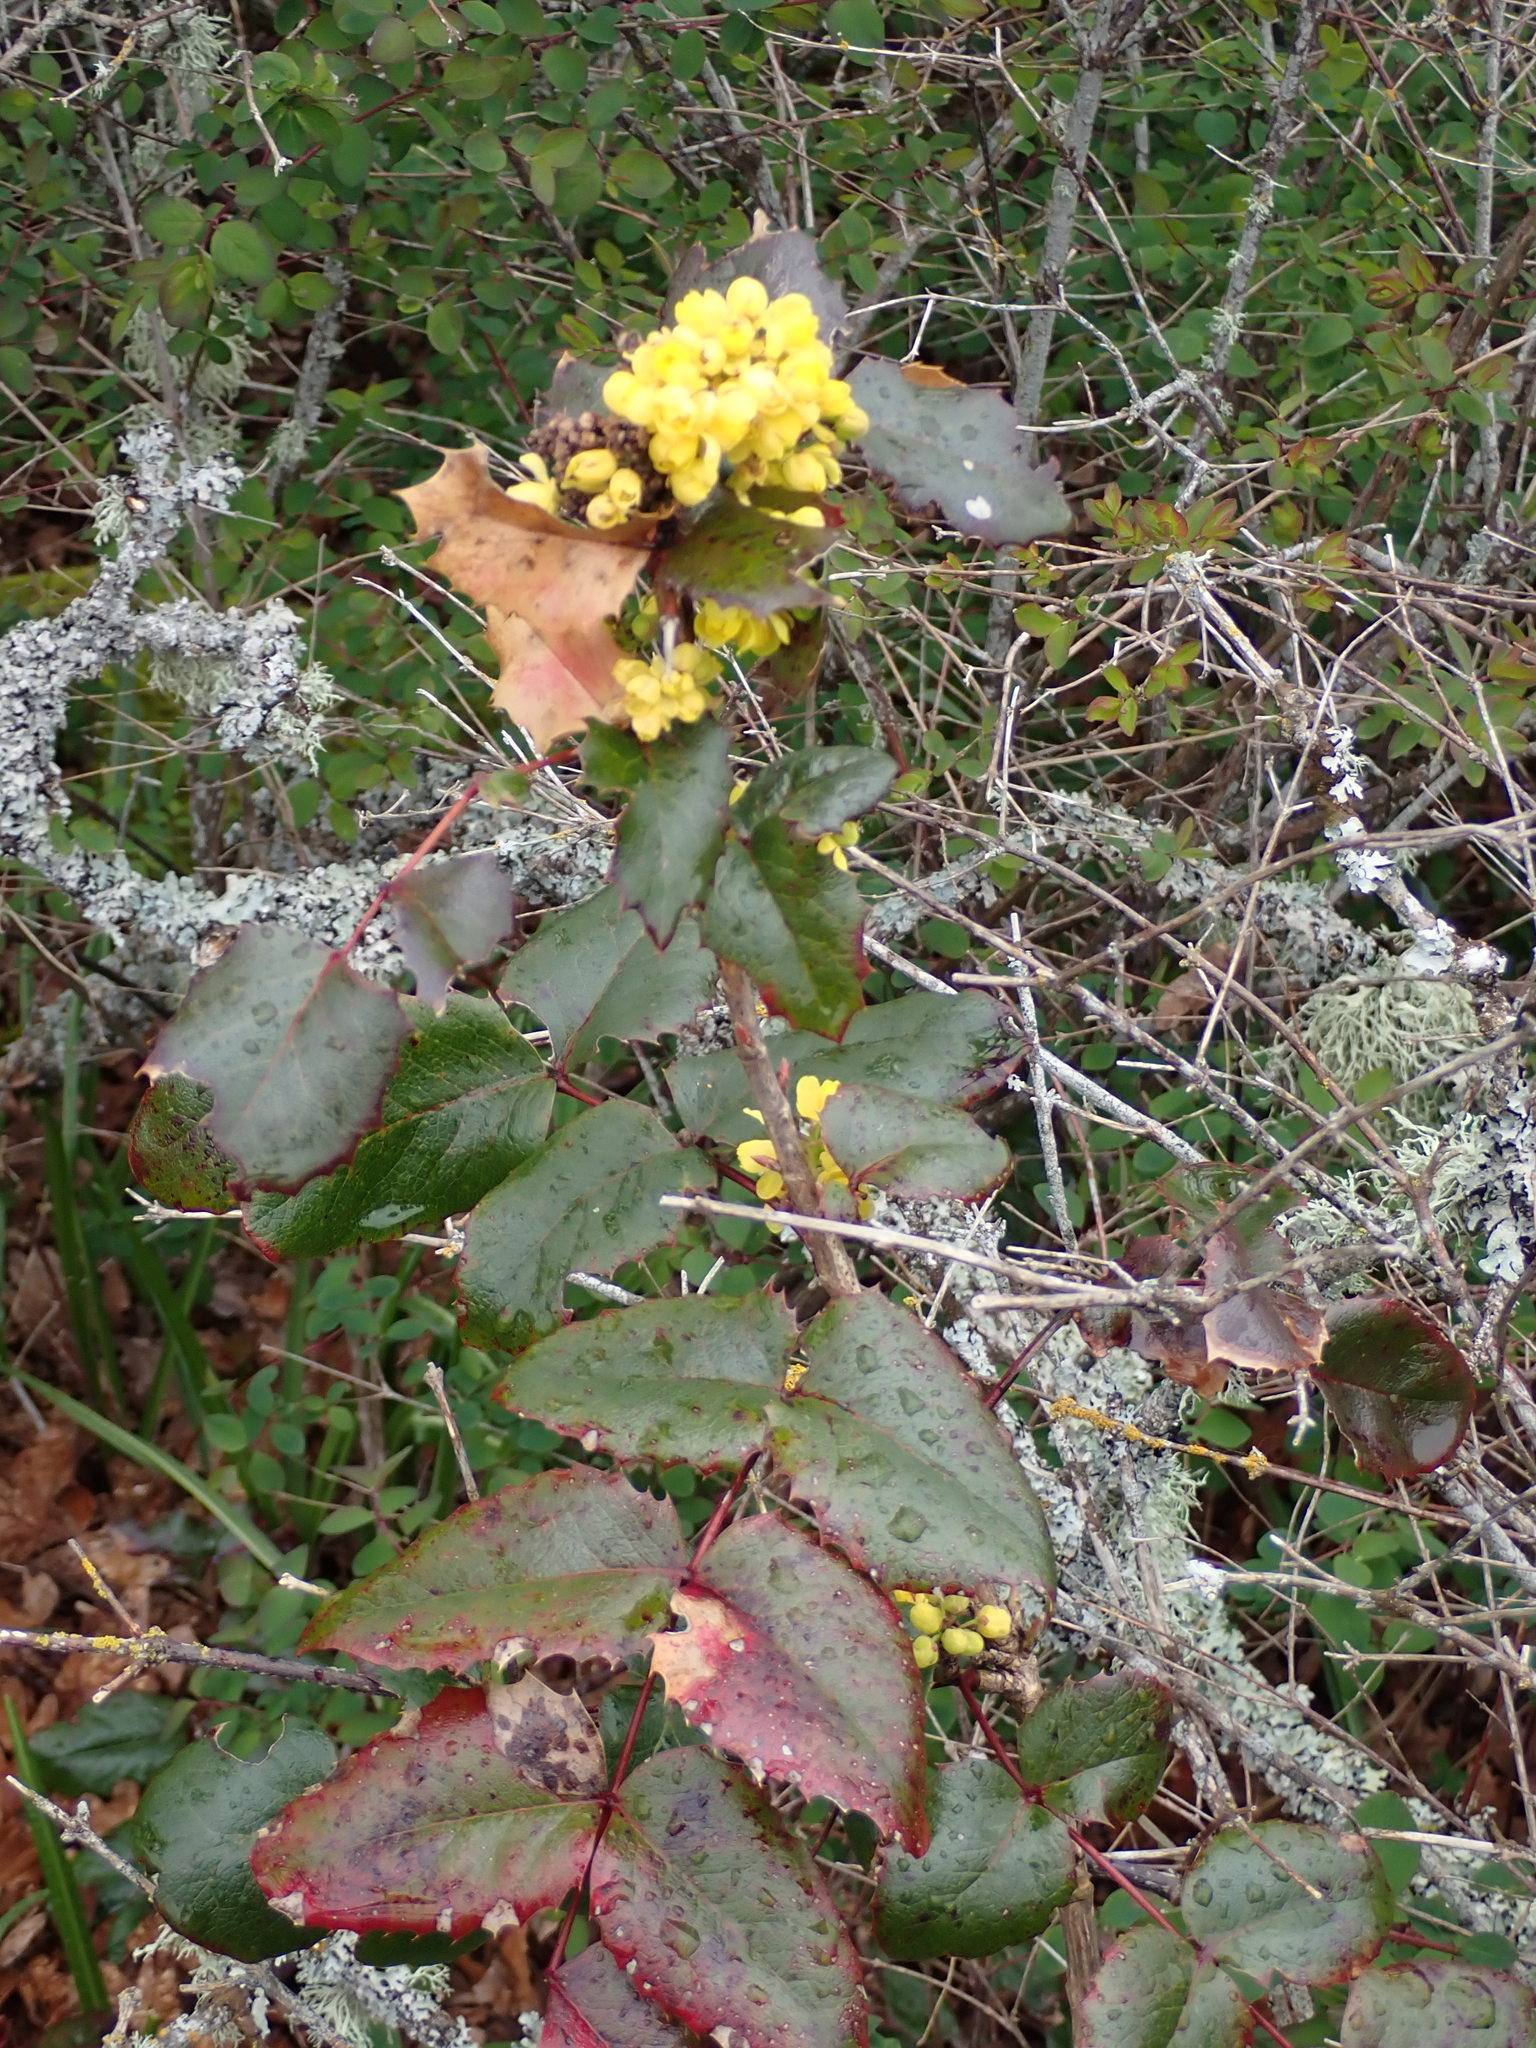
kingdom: Plantae
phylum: Tracheophyta
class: Magnoliopsida
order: Ranunculales
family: Berberidaceae
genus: Mahonia
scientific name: Mahonia aquifolium
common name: Oregon-grape
